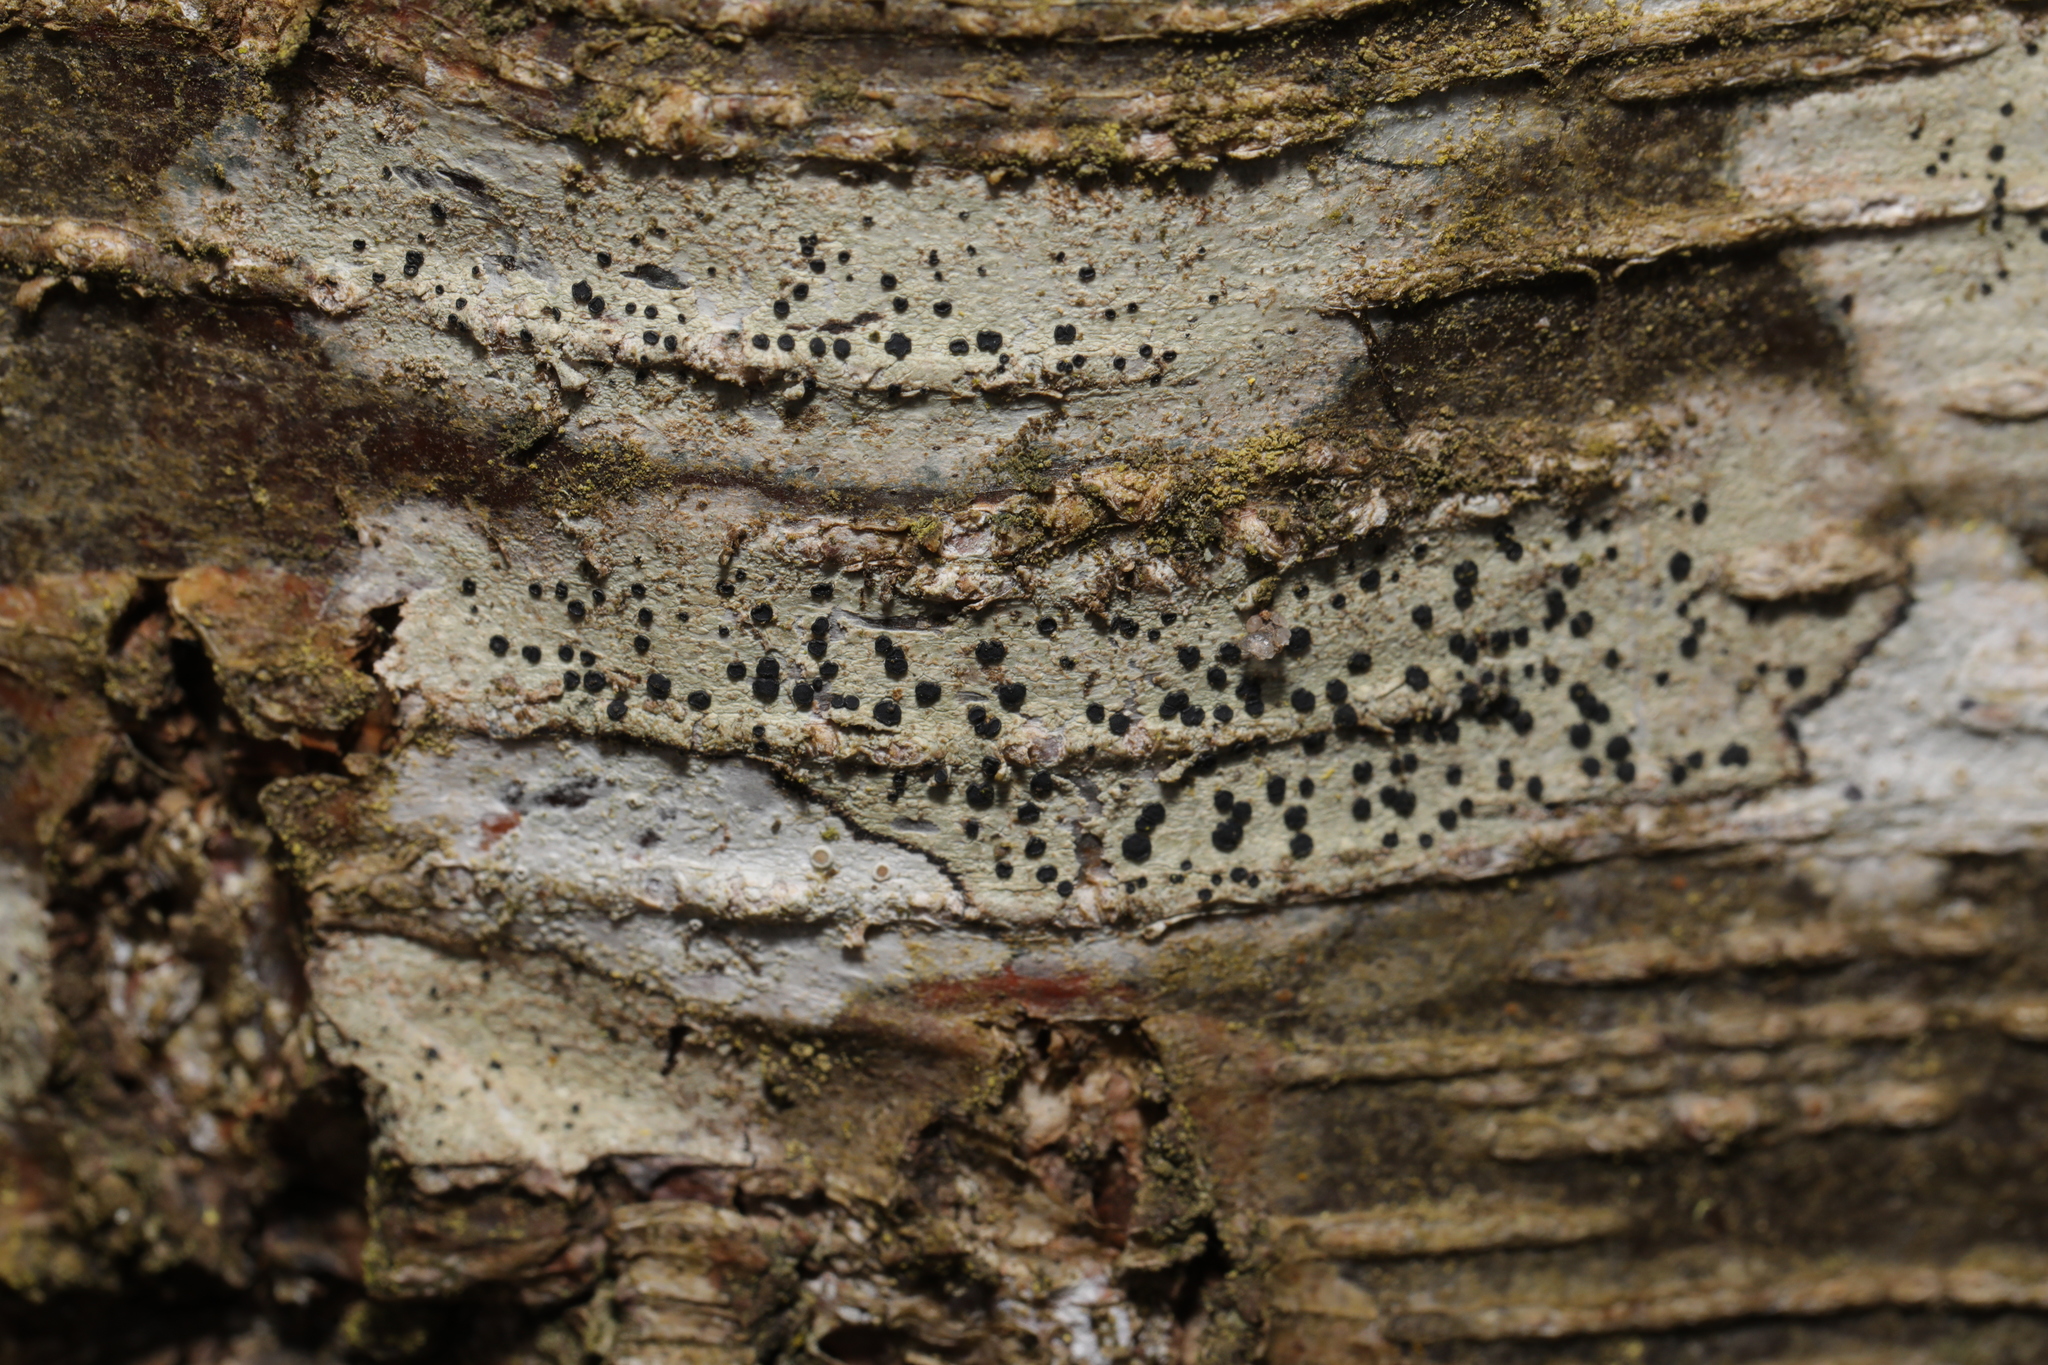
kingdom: Fungi
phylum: Ascomycota
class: Lecanoromycetes
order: Lecanorales
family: Lecanoraceae
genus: Lecidella
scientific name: Lecidella elaeochroma
